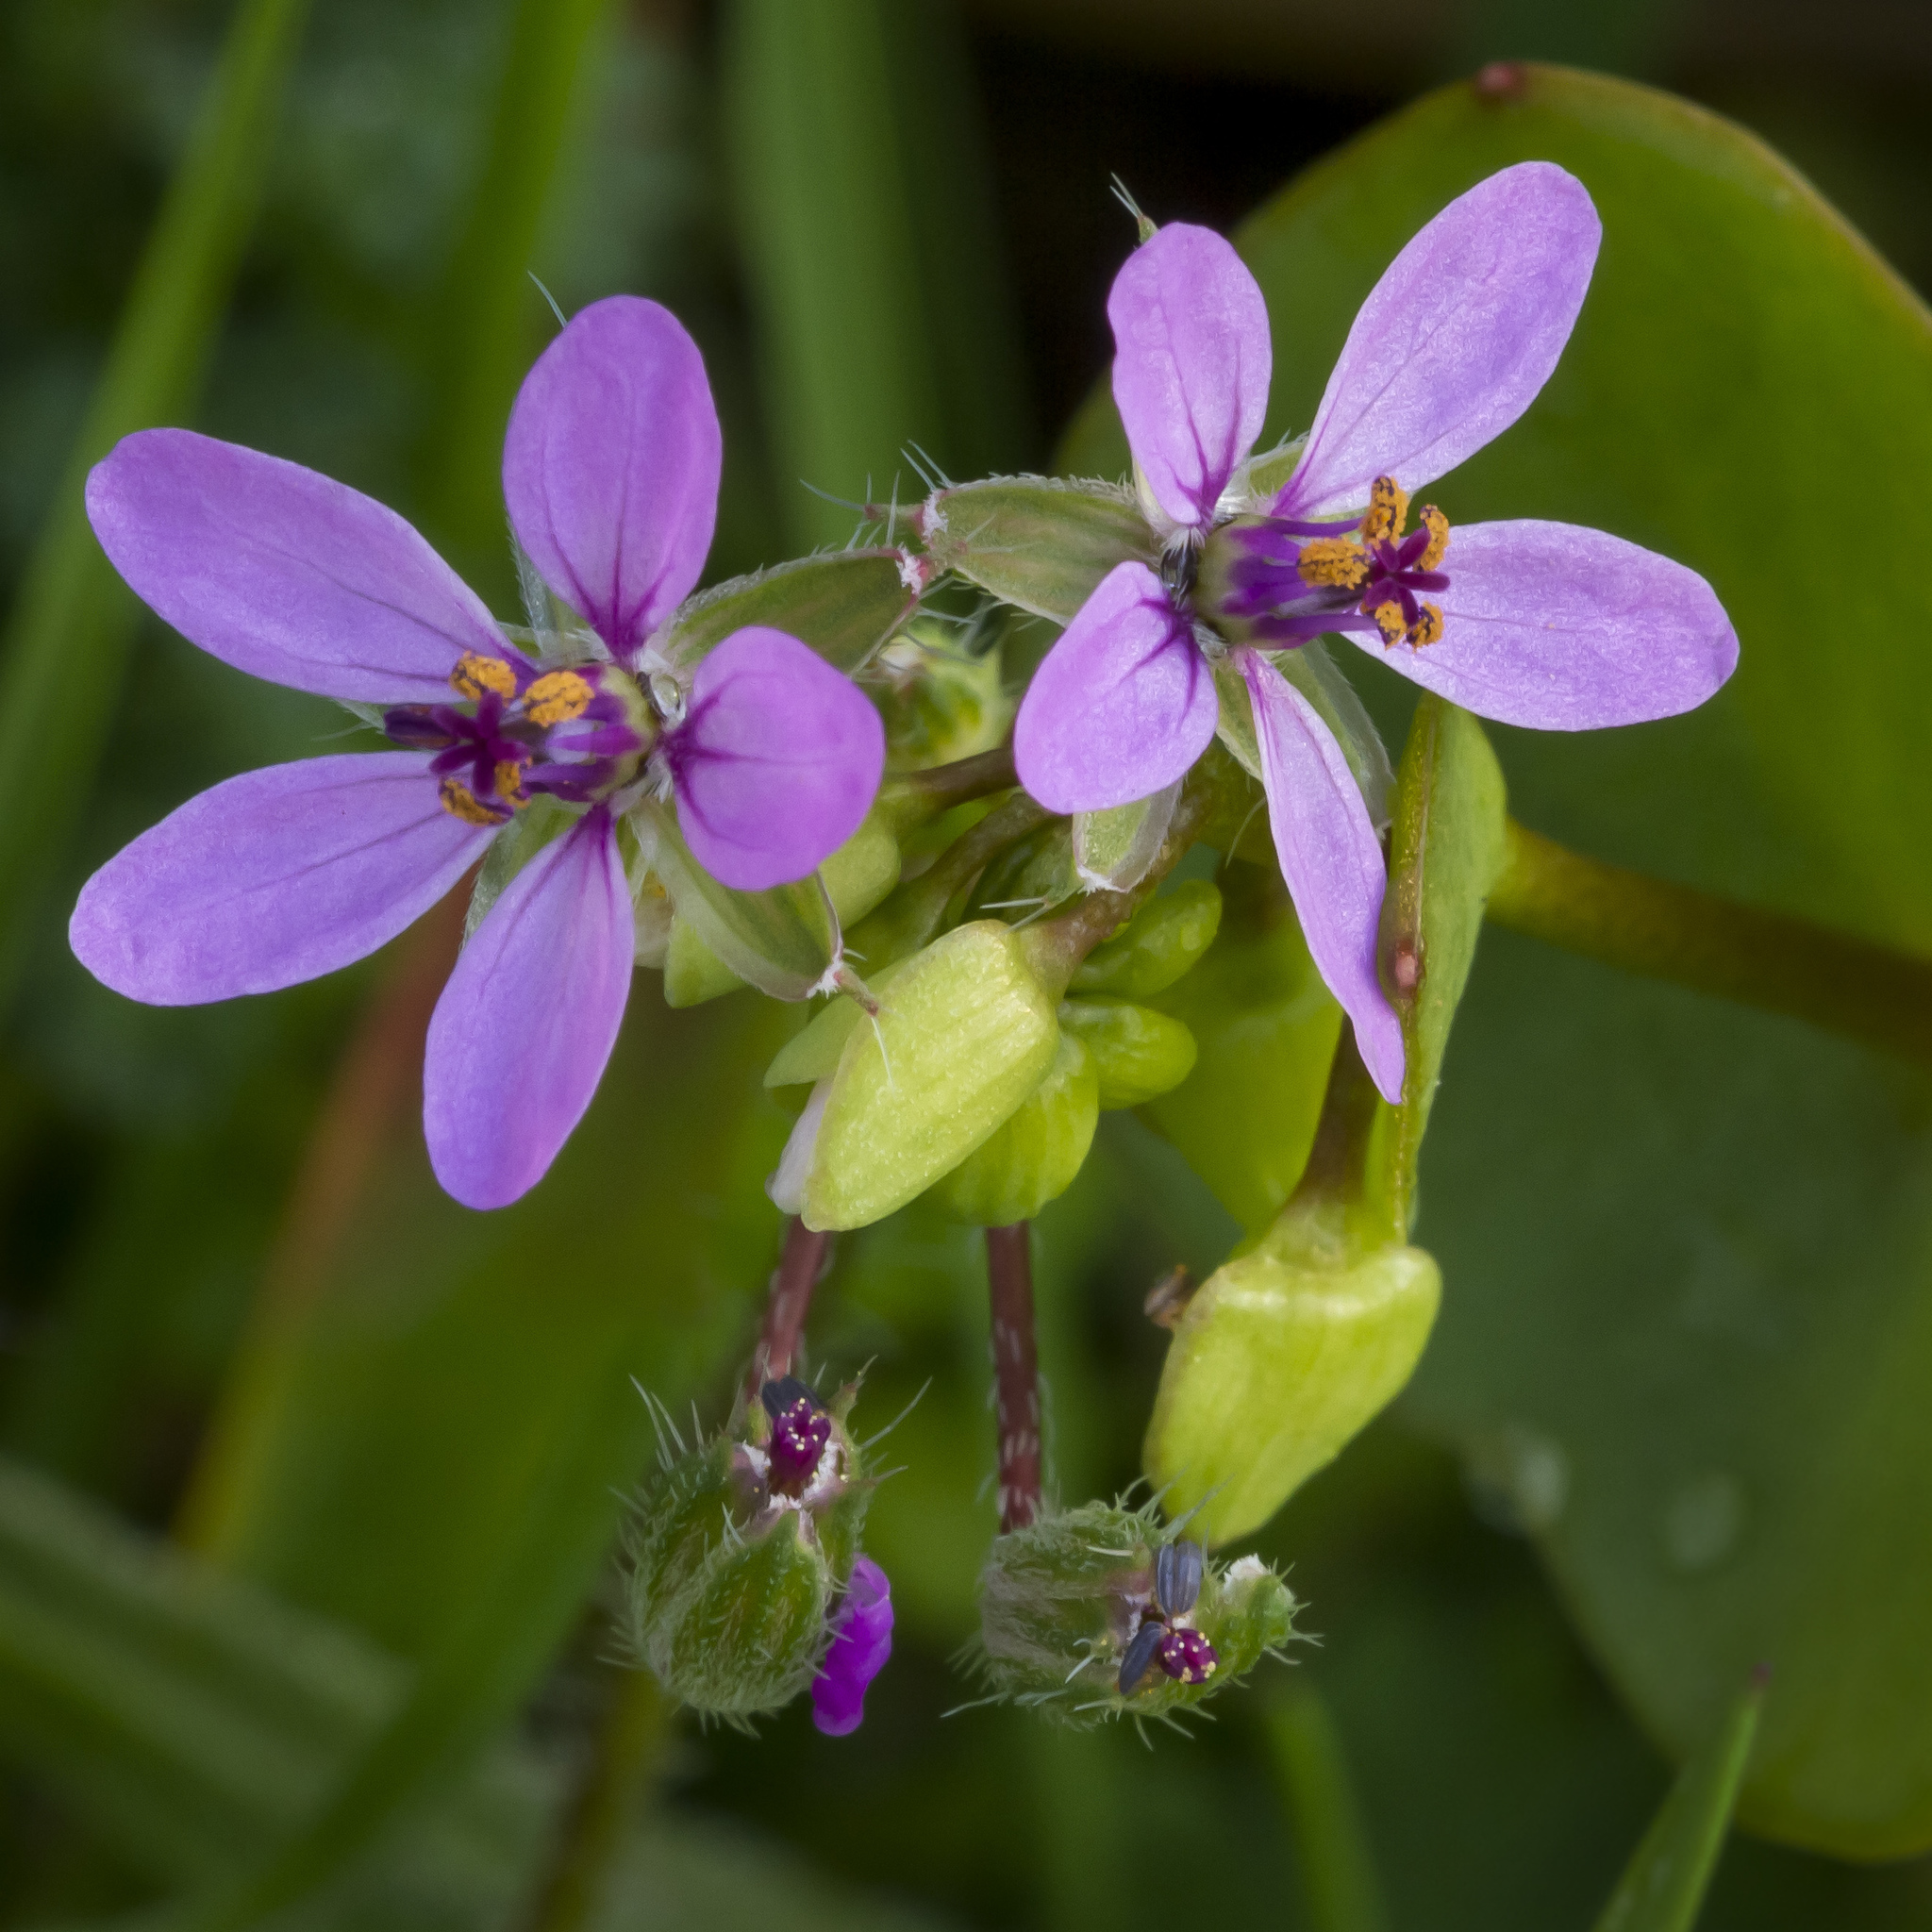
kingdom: Plantae
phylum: Tracheophyta
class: Magnoliopsida
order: Geraniales
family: Geraniaceae
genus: Erodium
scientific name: Erodium cicutarium
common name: Common stork's-bill
